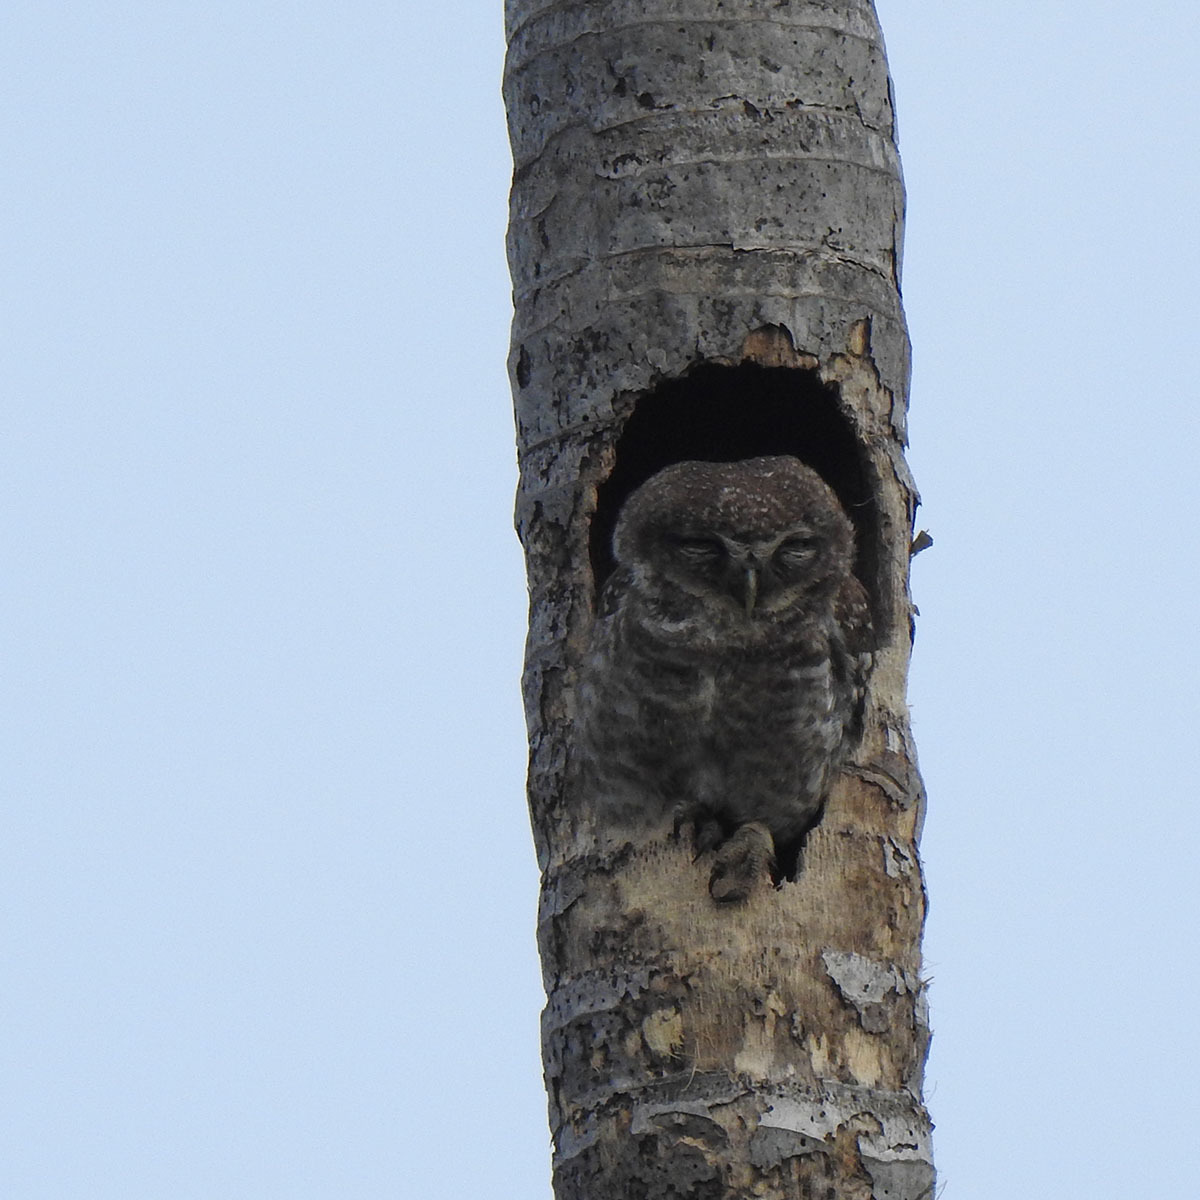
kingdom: Animalia
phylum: Chordata
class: Aves
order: Strigiformes
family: Strigidae
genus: Athene
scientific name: Athene brama
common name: Spotted owlet
